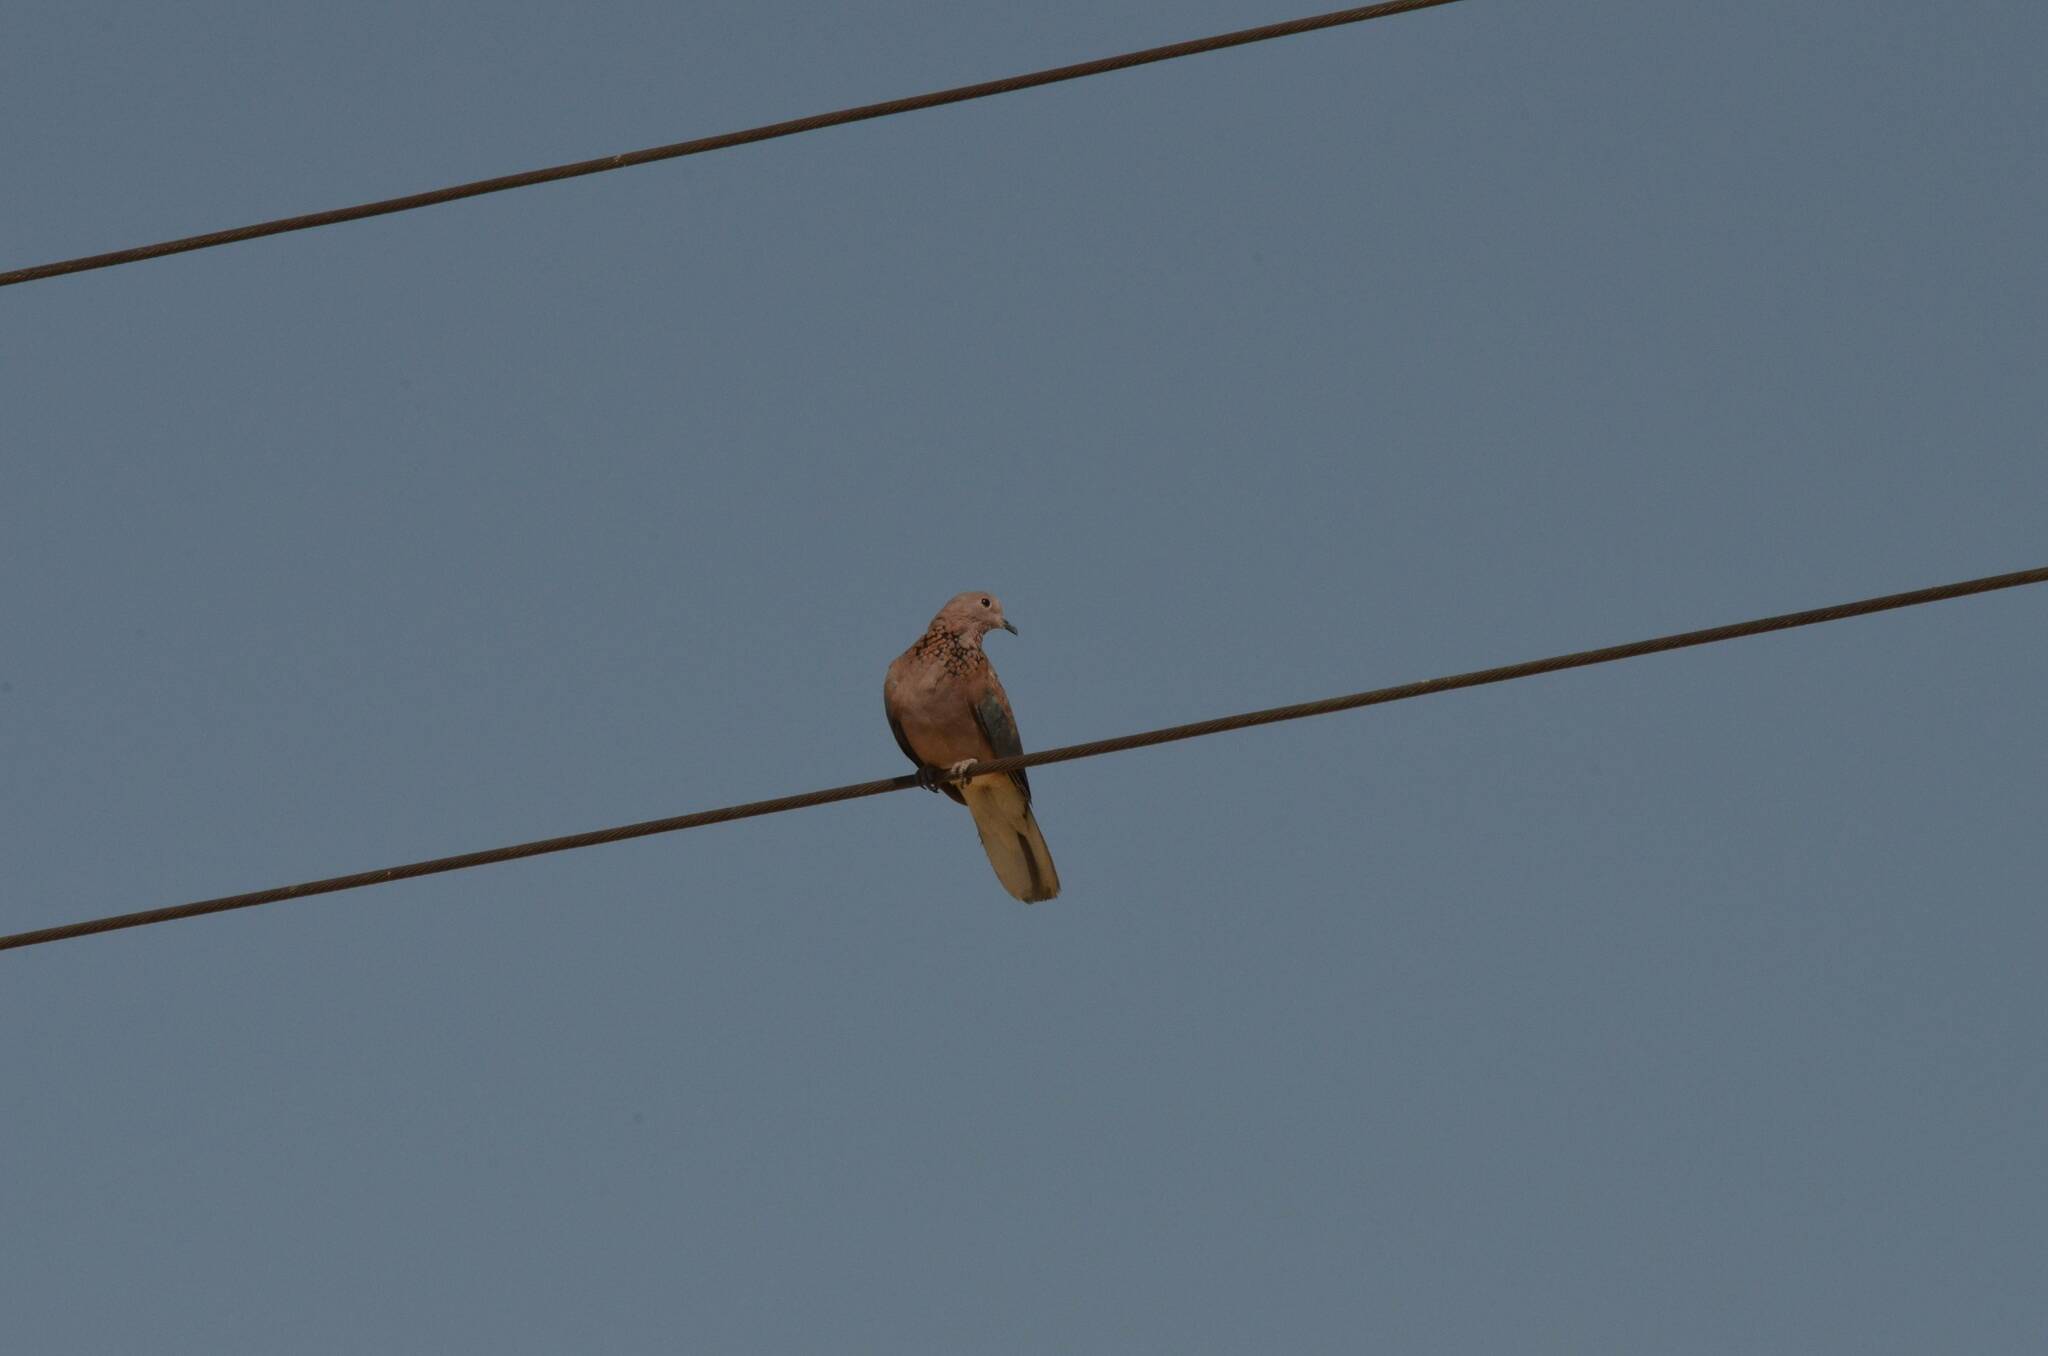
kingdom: Animalia
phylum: Chordata
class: Aves
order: Columbiformes
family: Columbidae
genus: Spilopelia
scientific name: Spilopelia senegalensis
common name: Laughing dove
